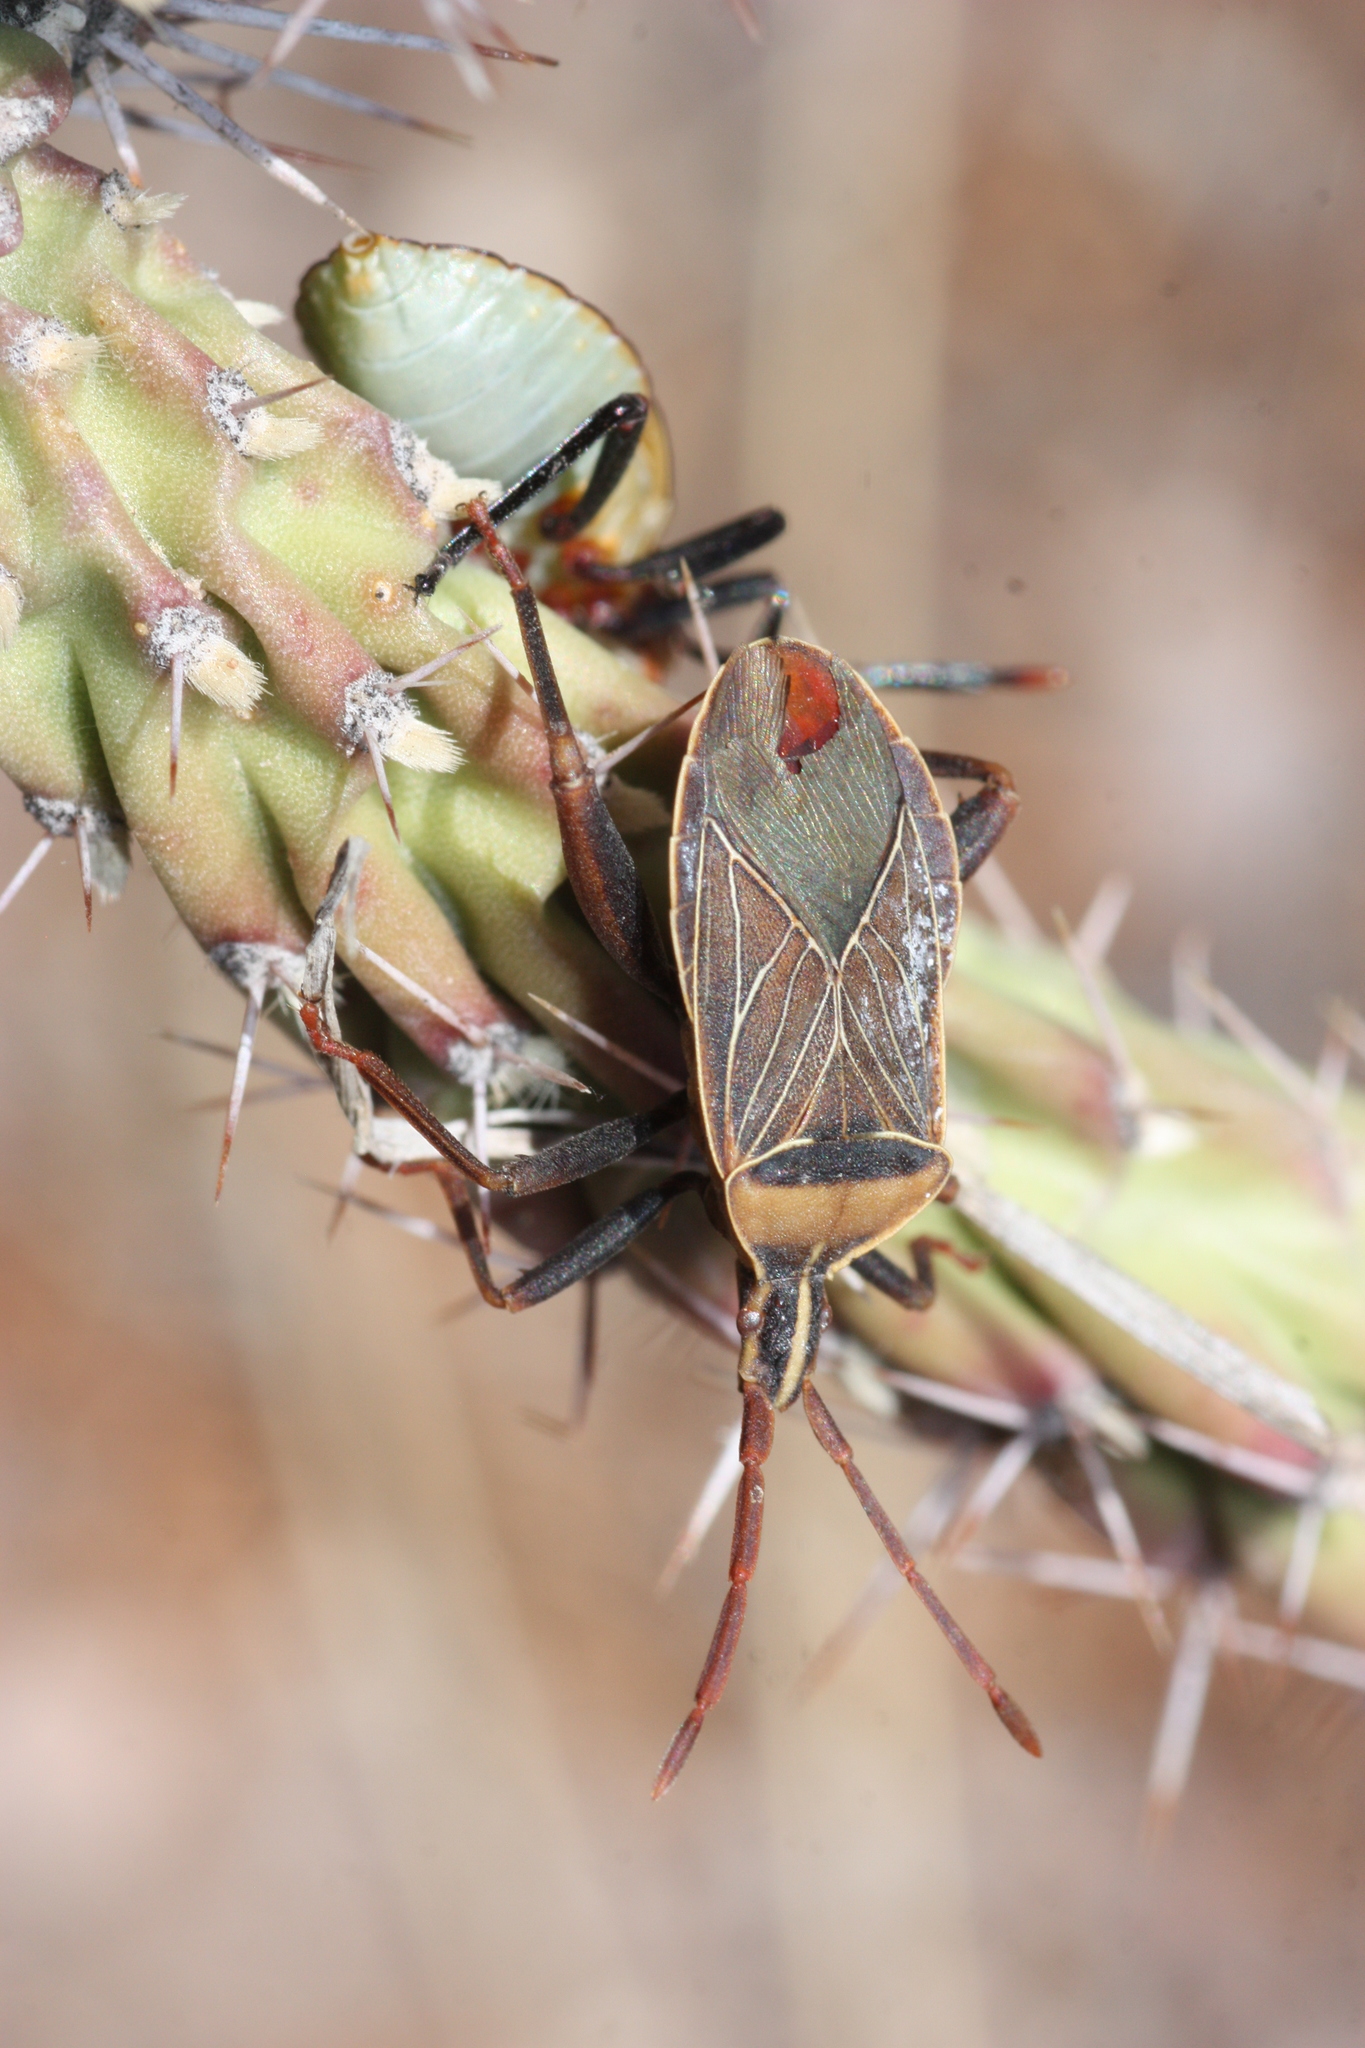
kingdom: Animalia
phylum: Arthropoda
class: Insecta
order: Hemiptera
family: Coreidae
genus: Chelinidea
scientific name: Chelinidea vittiger
